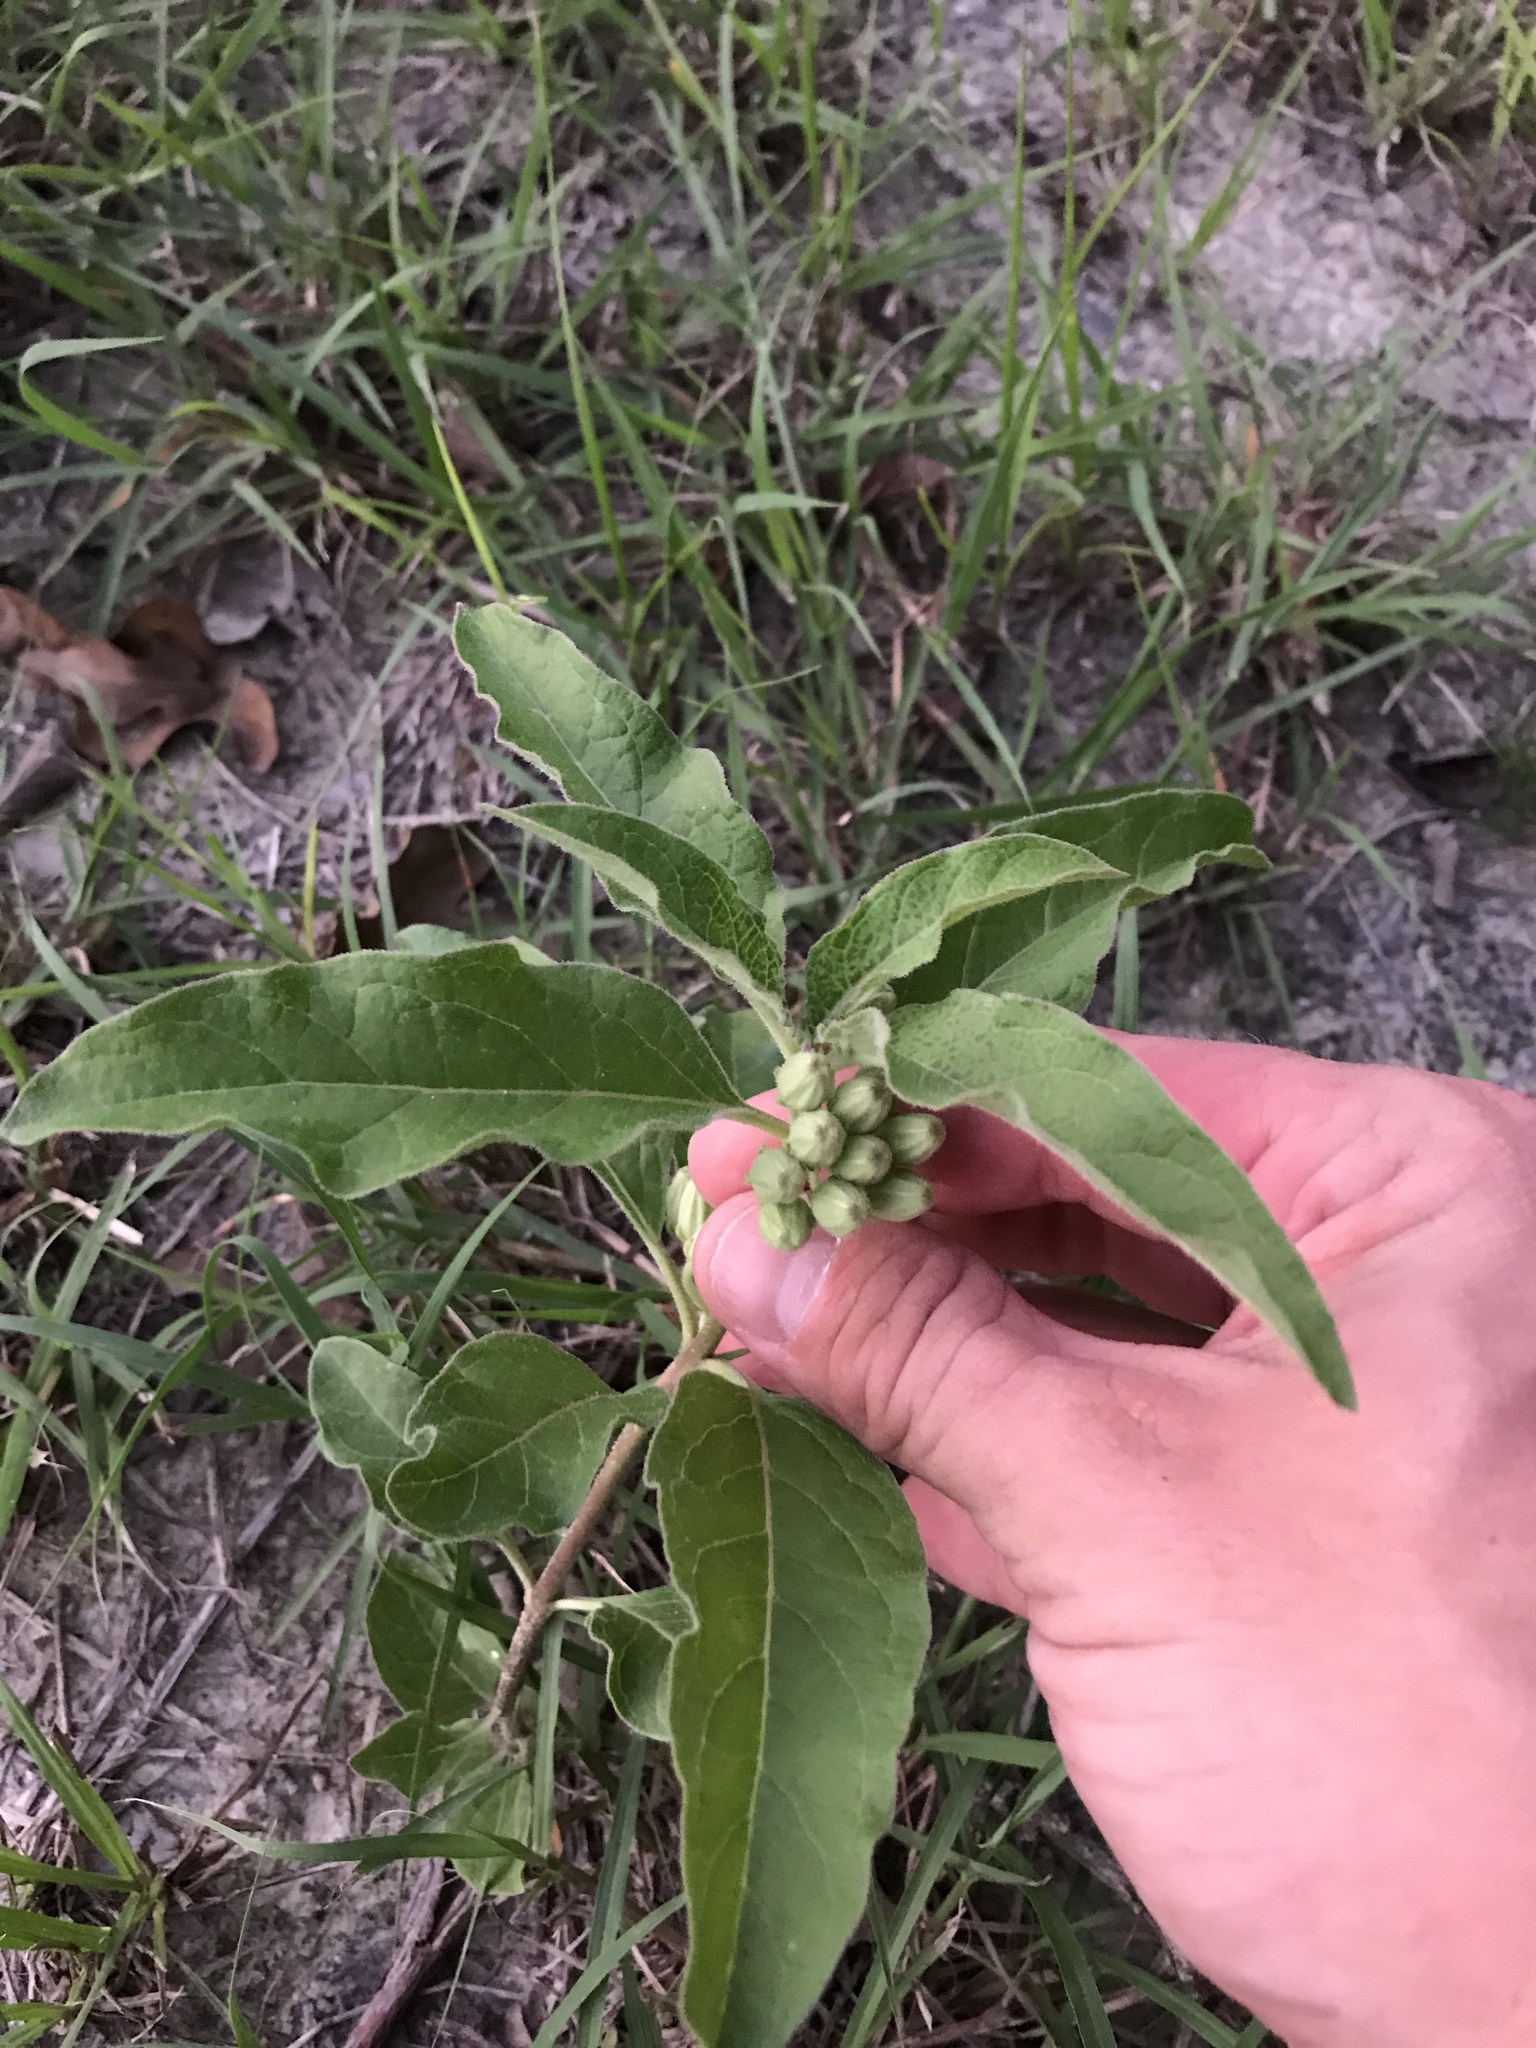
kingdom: Plantae
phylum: Tracheophyta
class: Magnoliopsida
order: Gentianales
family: Apocynaceae
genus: Asclepias
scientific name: Asclepias oenotheroides
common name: Zizotes milkweed
